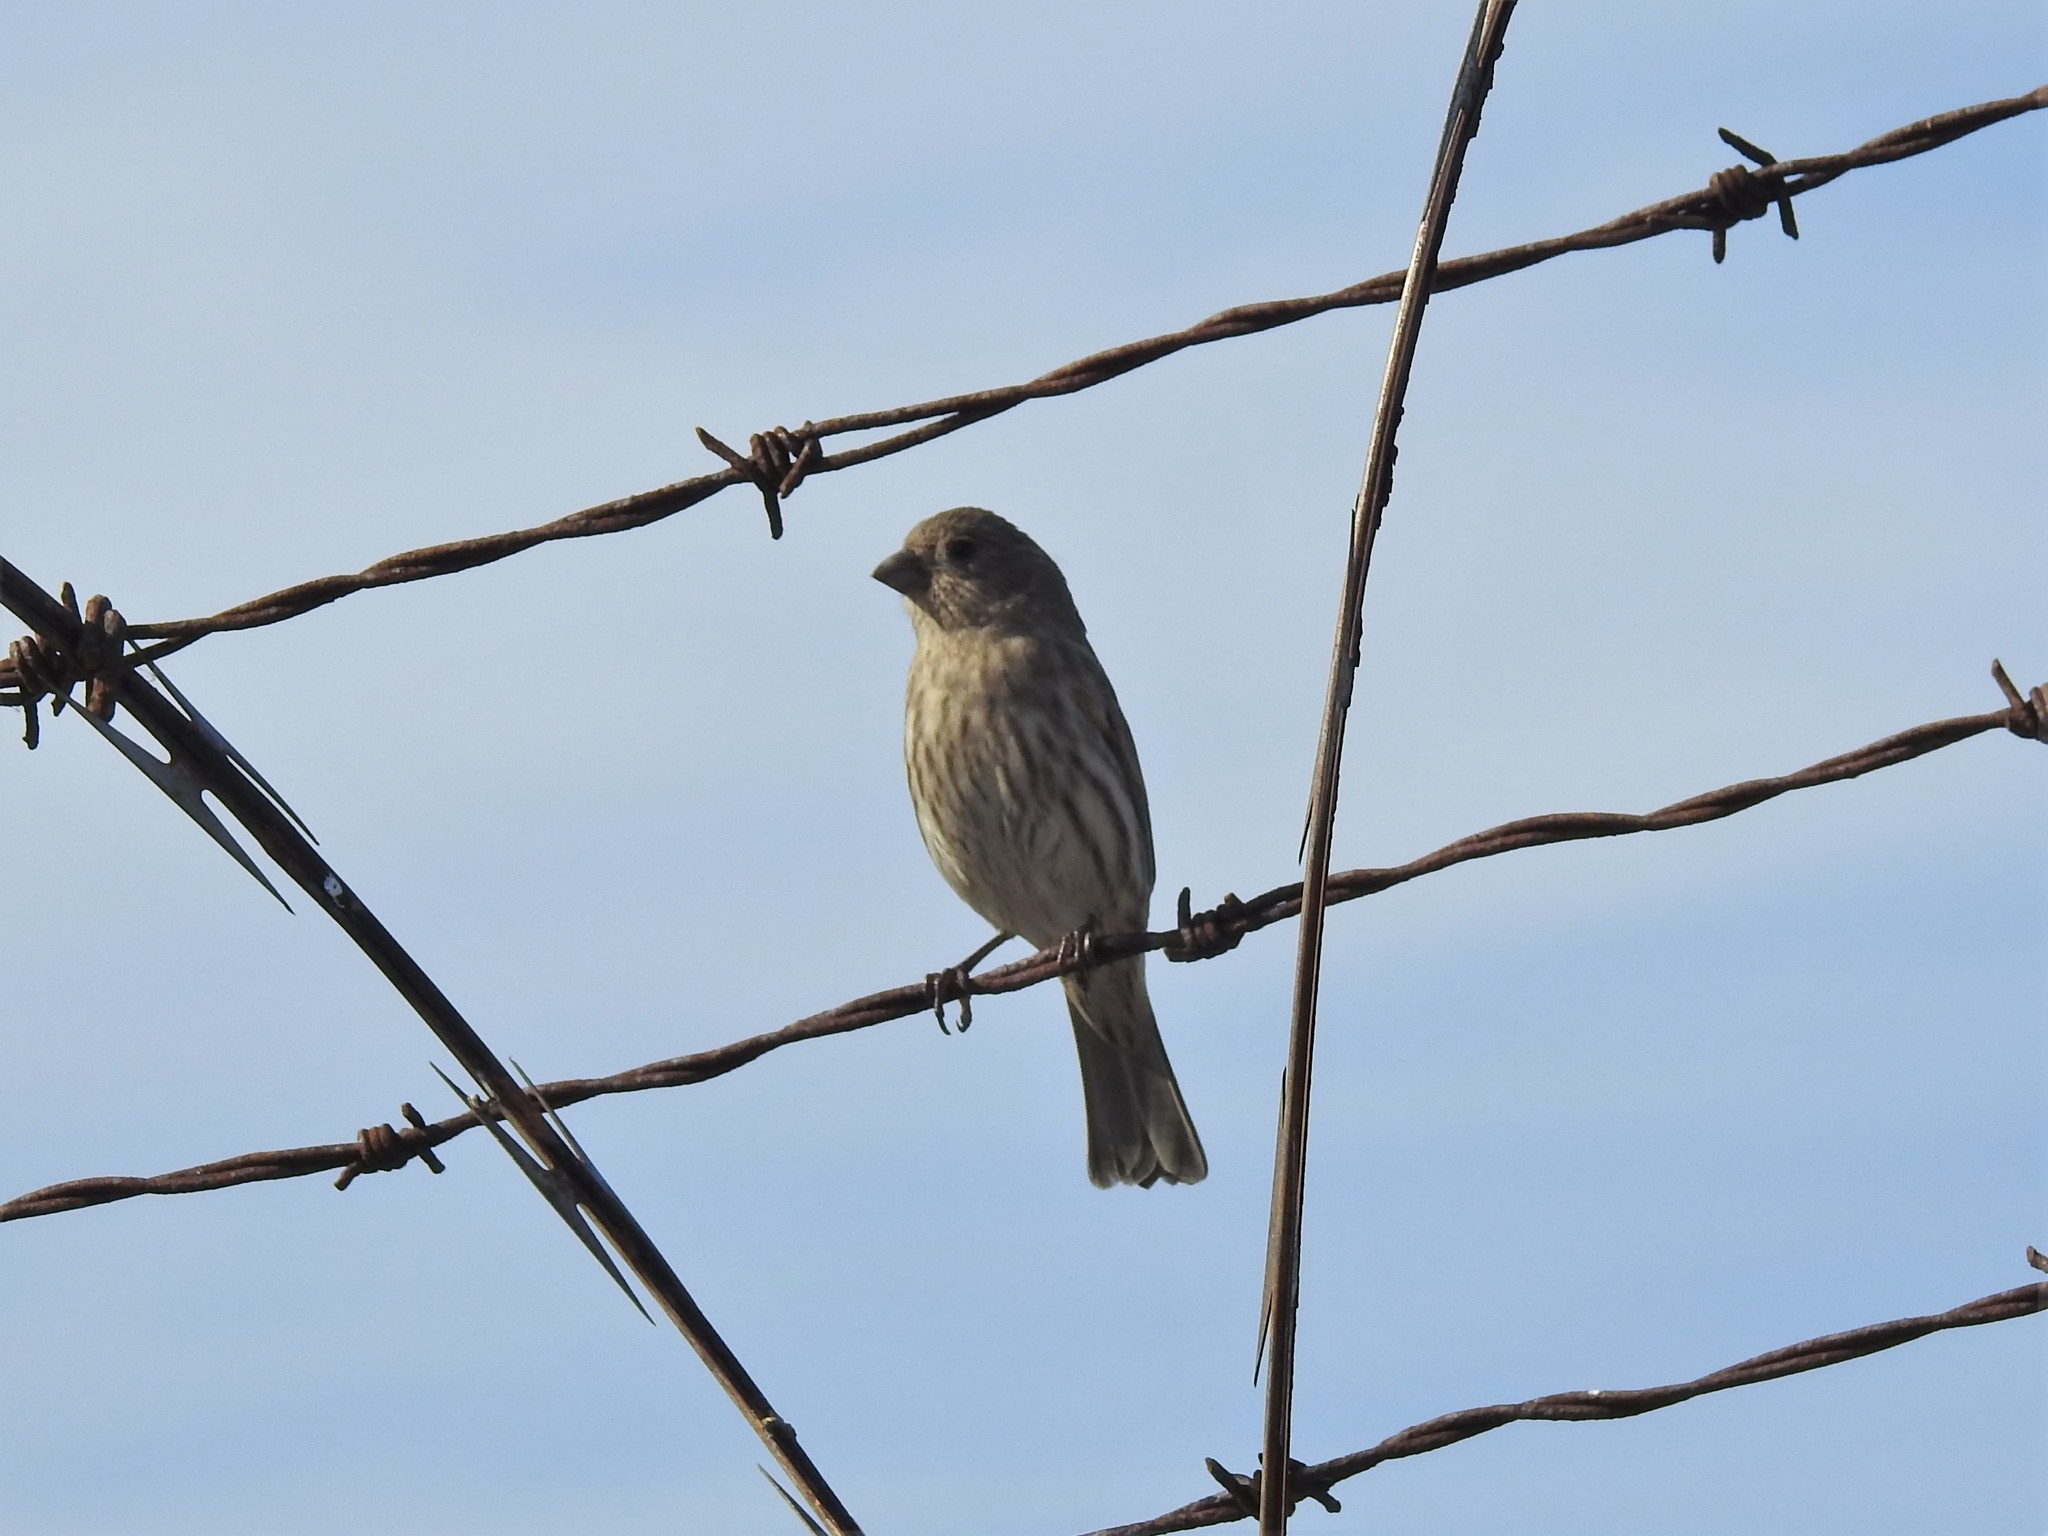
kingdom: Animalia
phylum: Chordata
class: Aves
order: Passeriformes
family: Fringillidae
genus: Haemorhous
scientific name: Haemorhous mexicanus
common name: House finch
